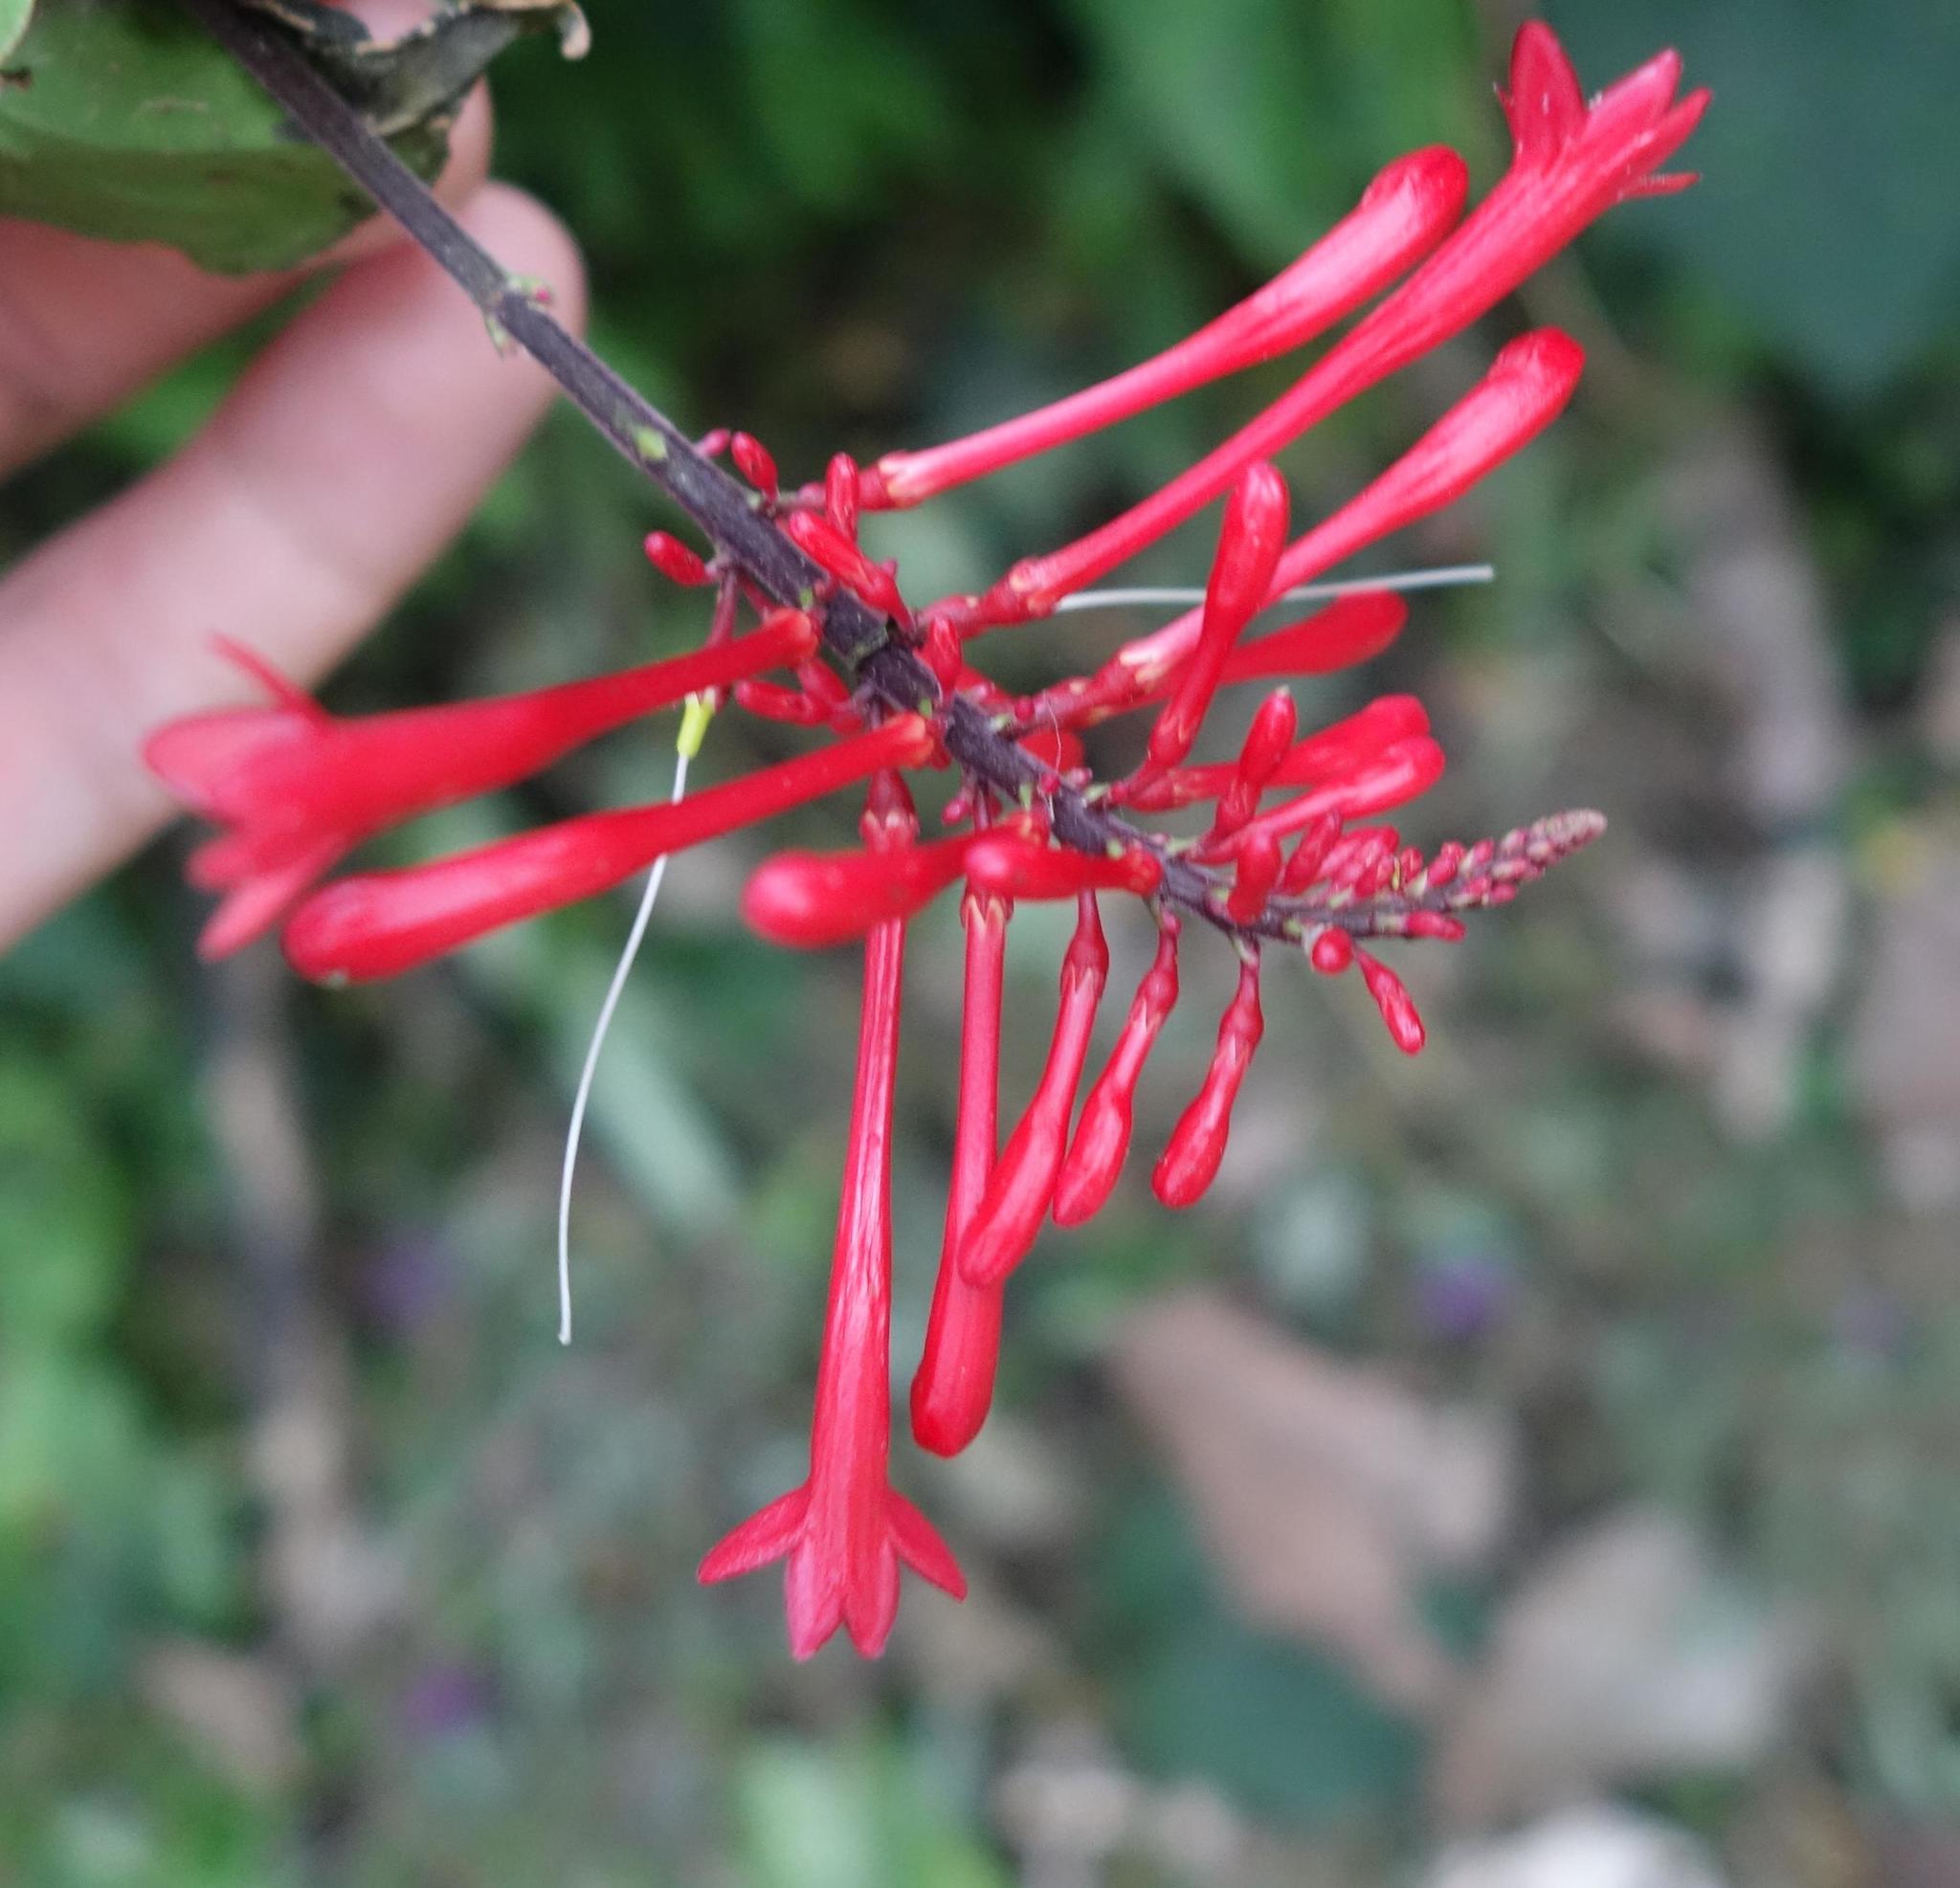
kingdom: Plantae
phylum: Tracheophyta
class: Magnoliopsida
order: Lamiales
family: Acanthaceae
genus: Odontonema
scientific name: Odontonema tubaeforme
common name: Firespike
